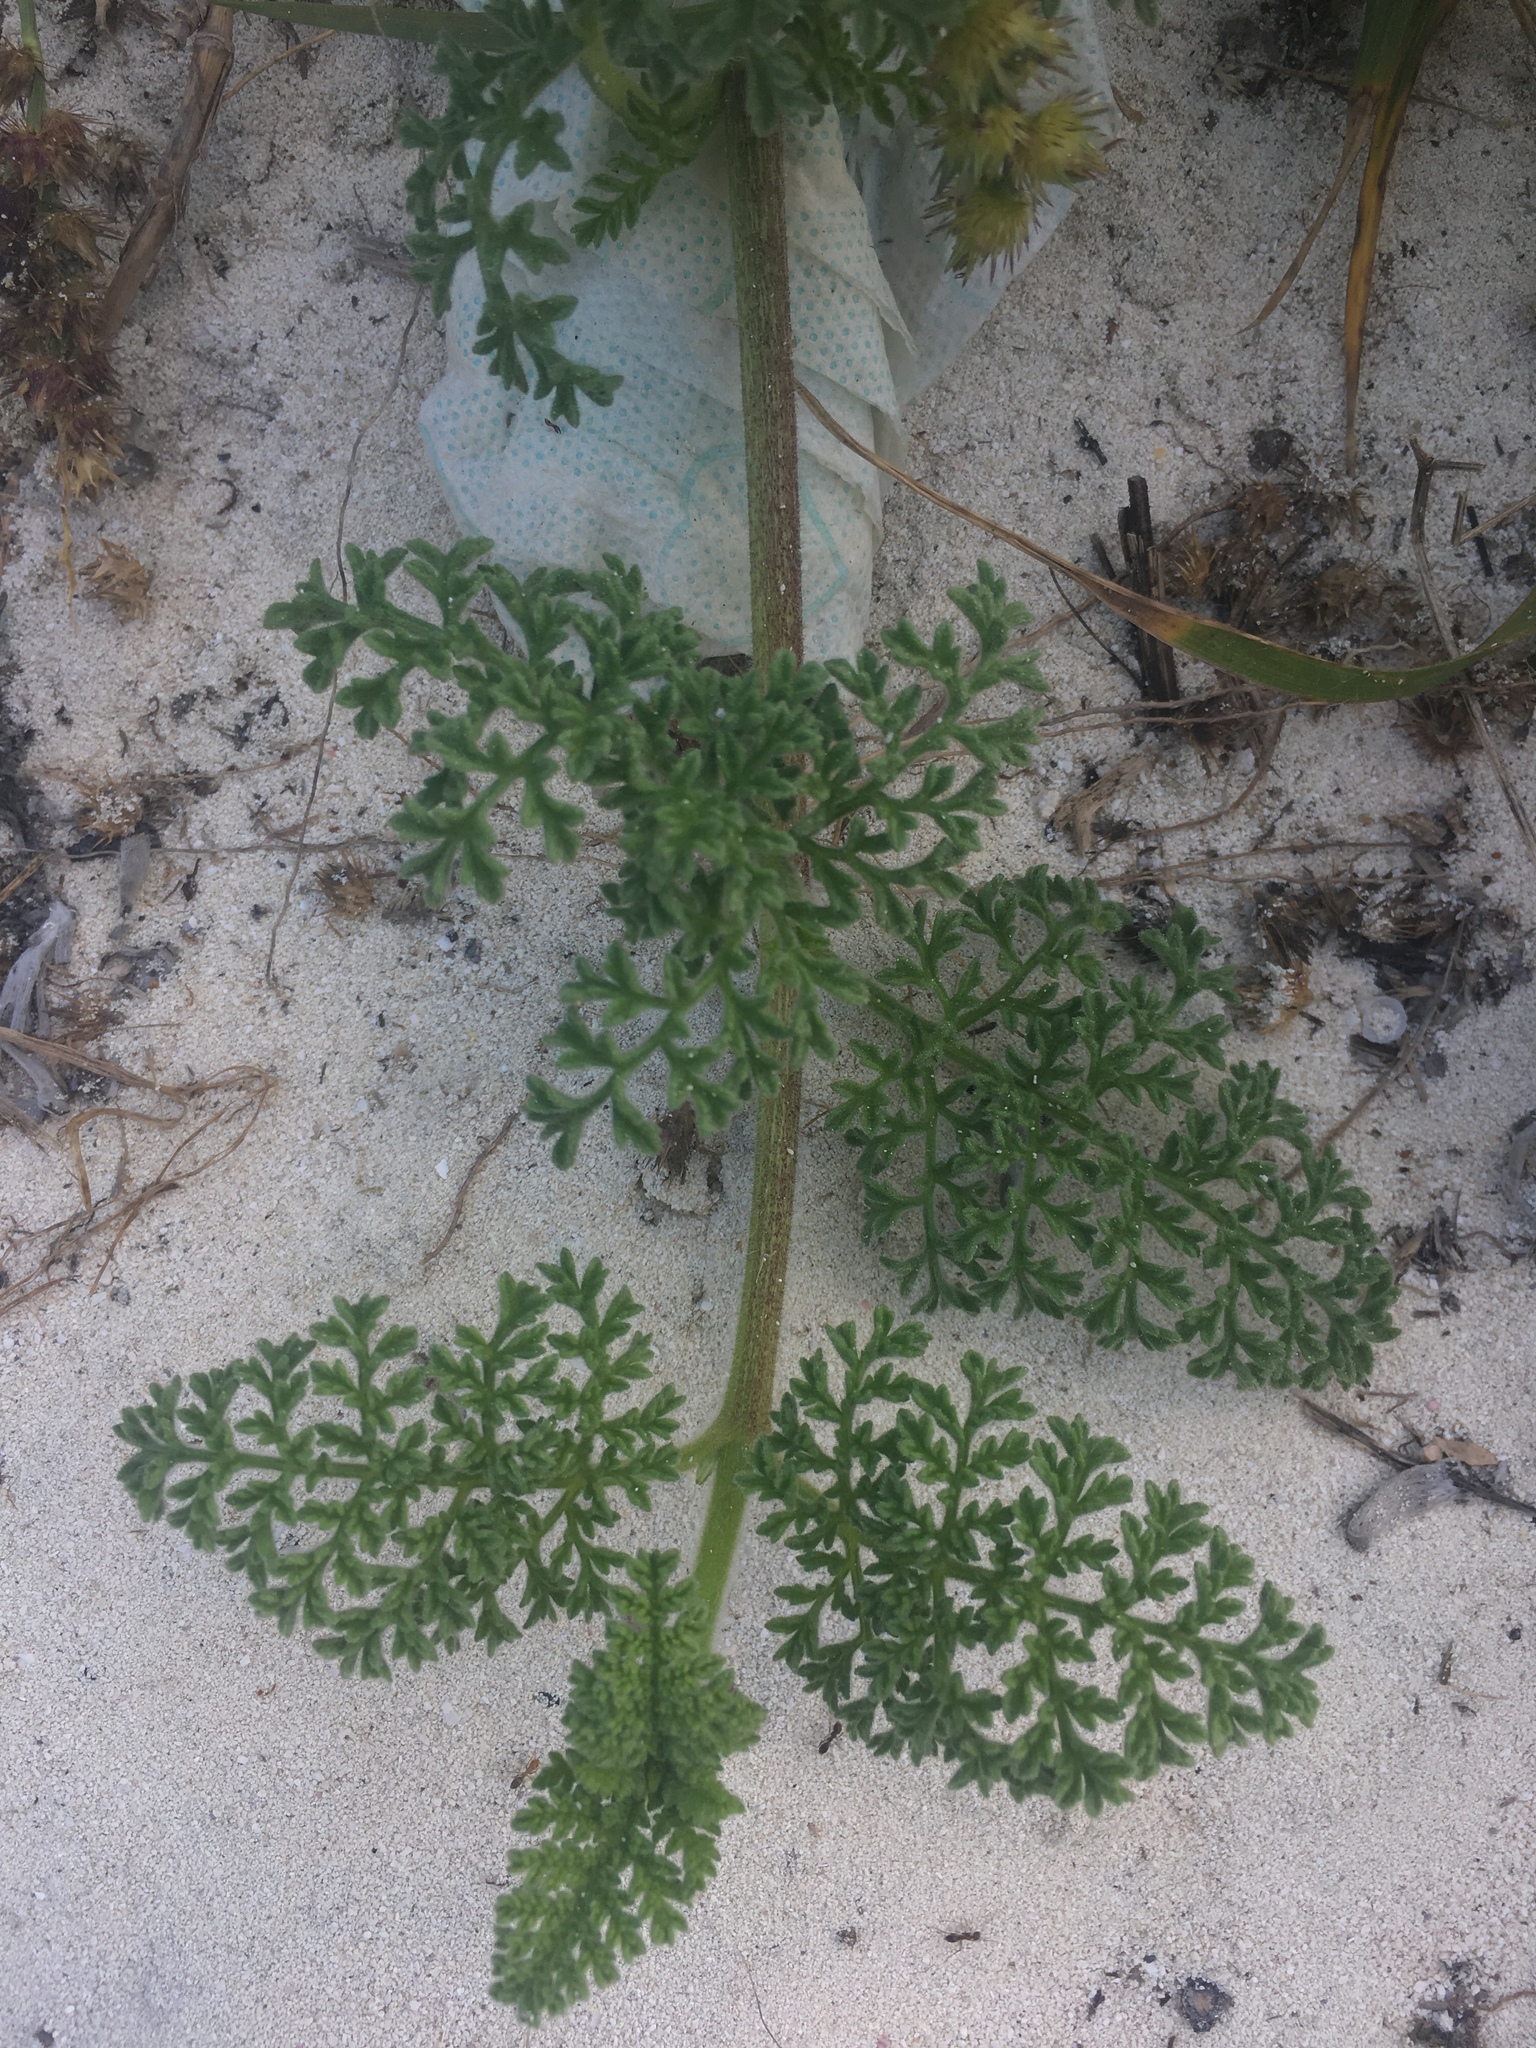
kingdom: Plantae
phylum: Tracheophyta
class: Magnoliopsida
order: Asterales
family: Asteraceae
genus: Ambrosia
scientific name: Ambrosia hispida
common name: Coastal ragweed
